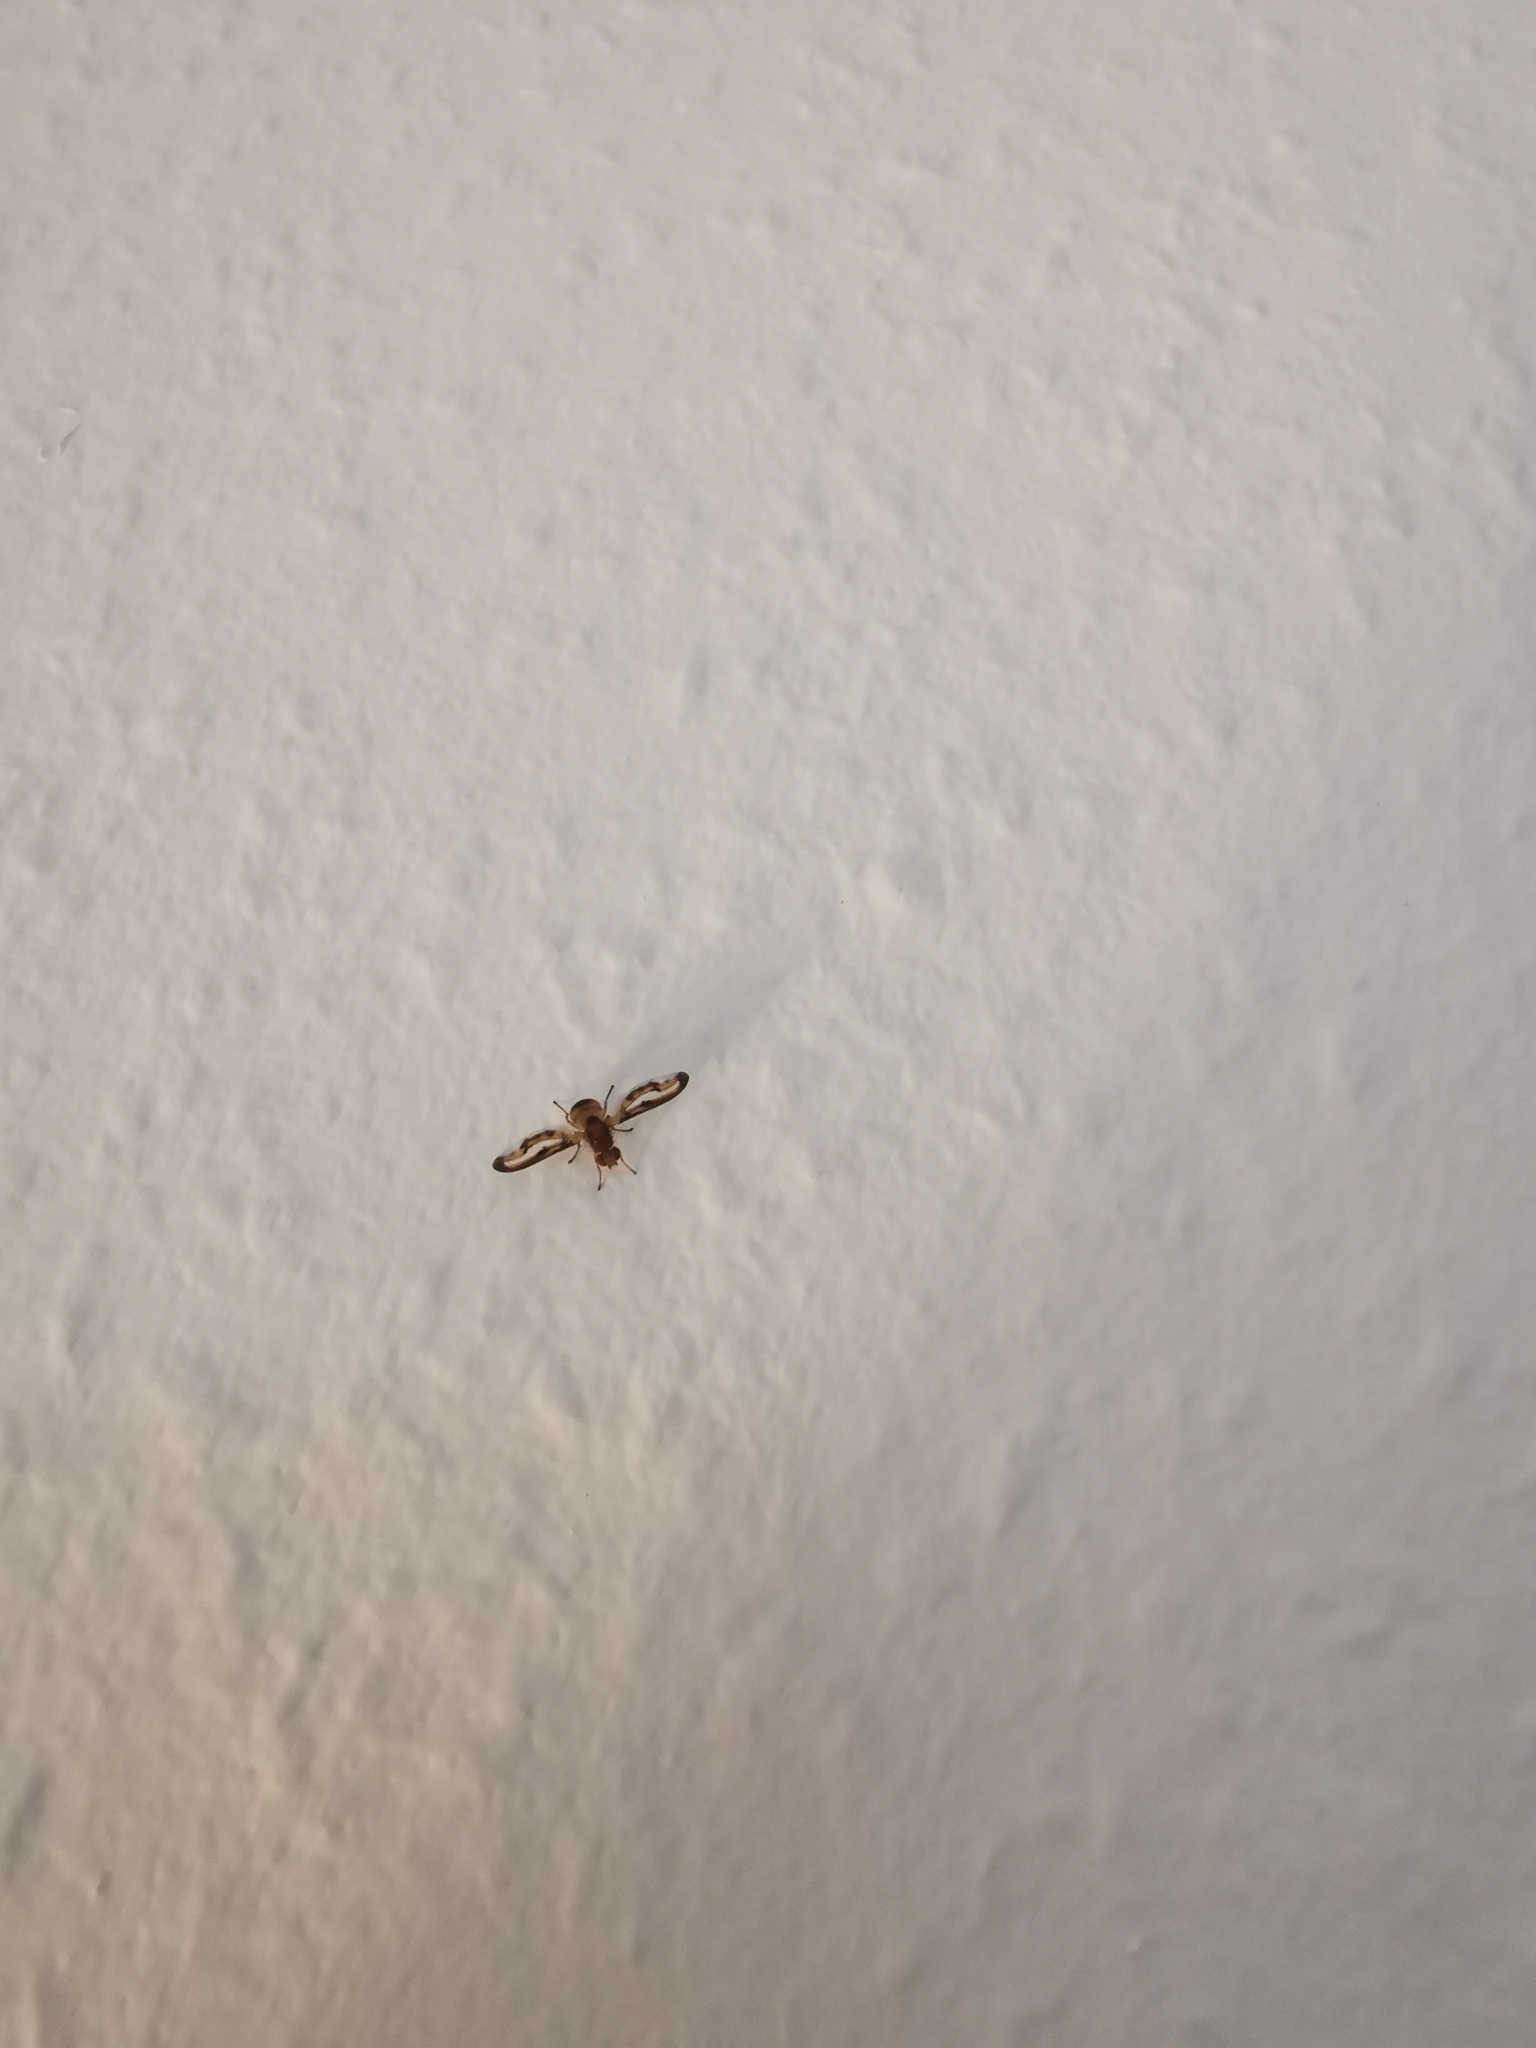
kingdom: Animalia
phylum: Arthropoda
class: Insecta
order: Diptera
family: Pallopteridae
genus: Toxonevra
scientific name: Toxonevra muliebris
